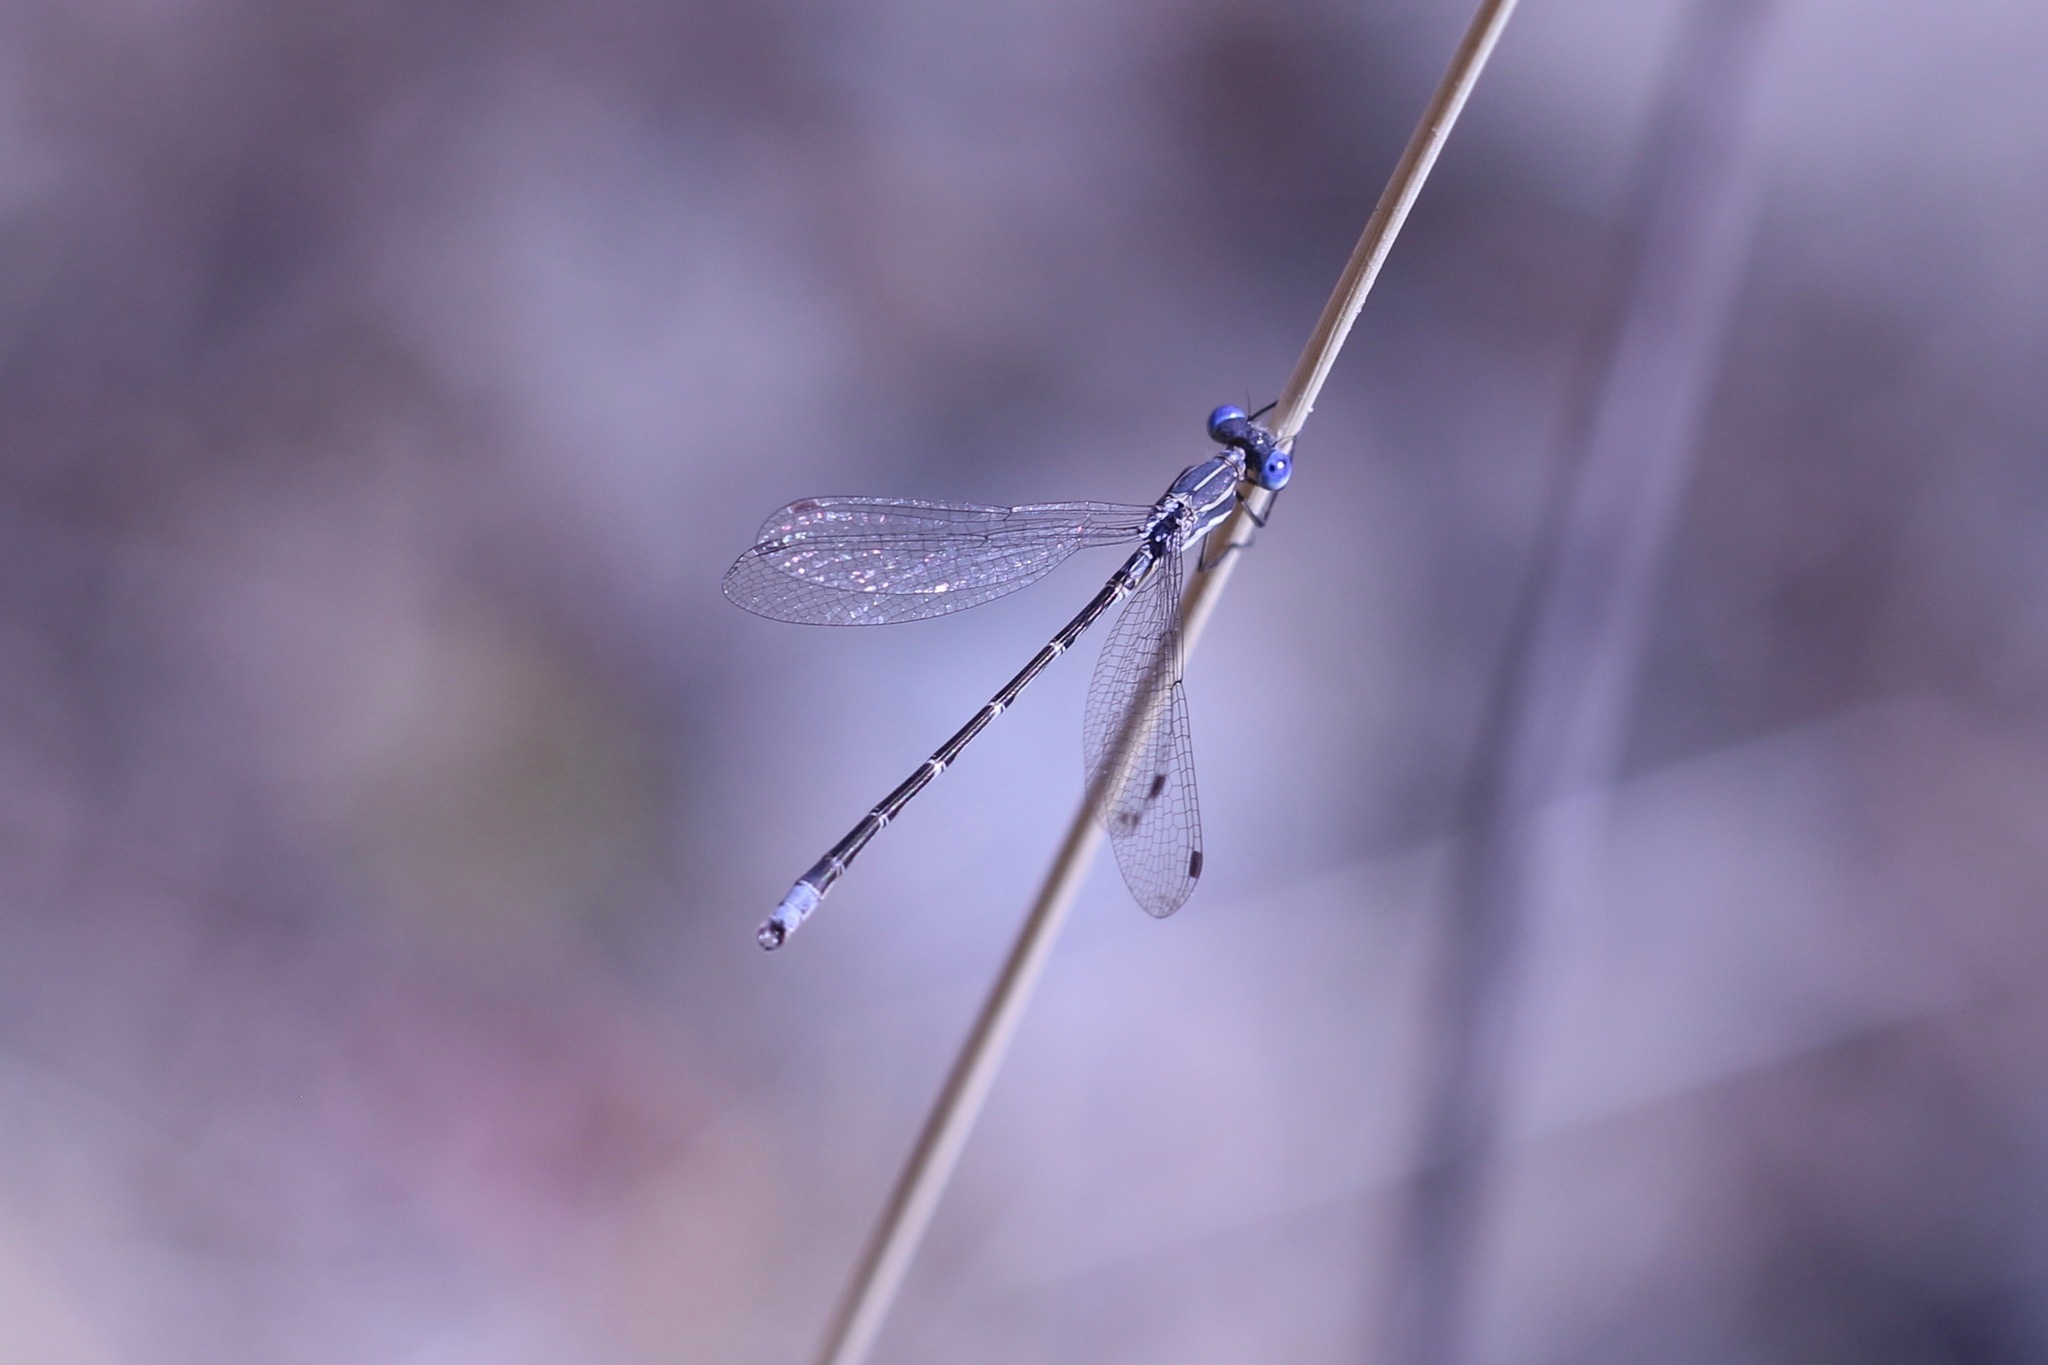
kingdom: Animalia
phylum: Arthropoda
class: Insecta
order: Odonata
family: Lestidae
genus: Lestes
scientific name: Lestes congener
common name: Spotted spreadwing
